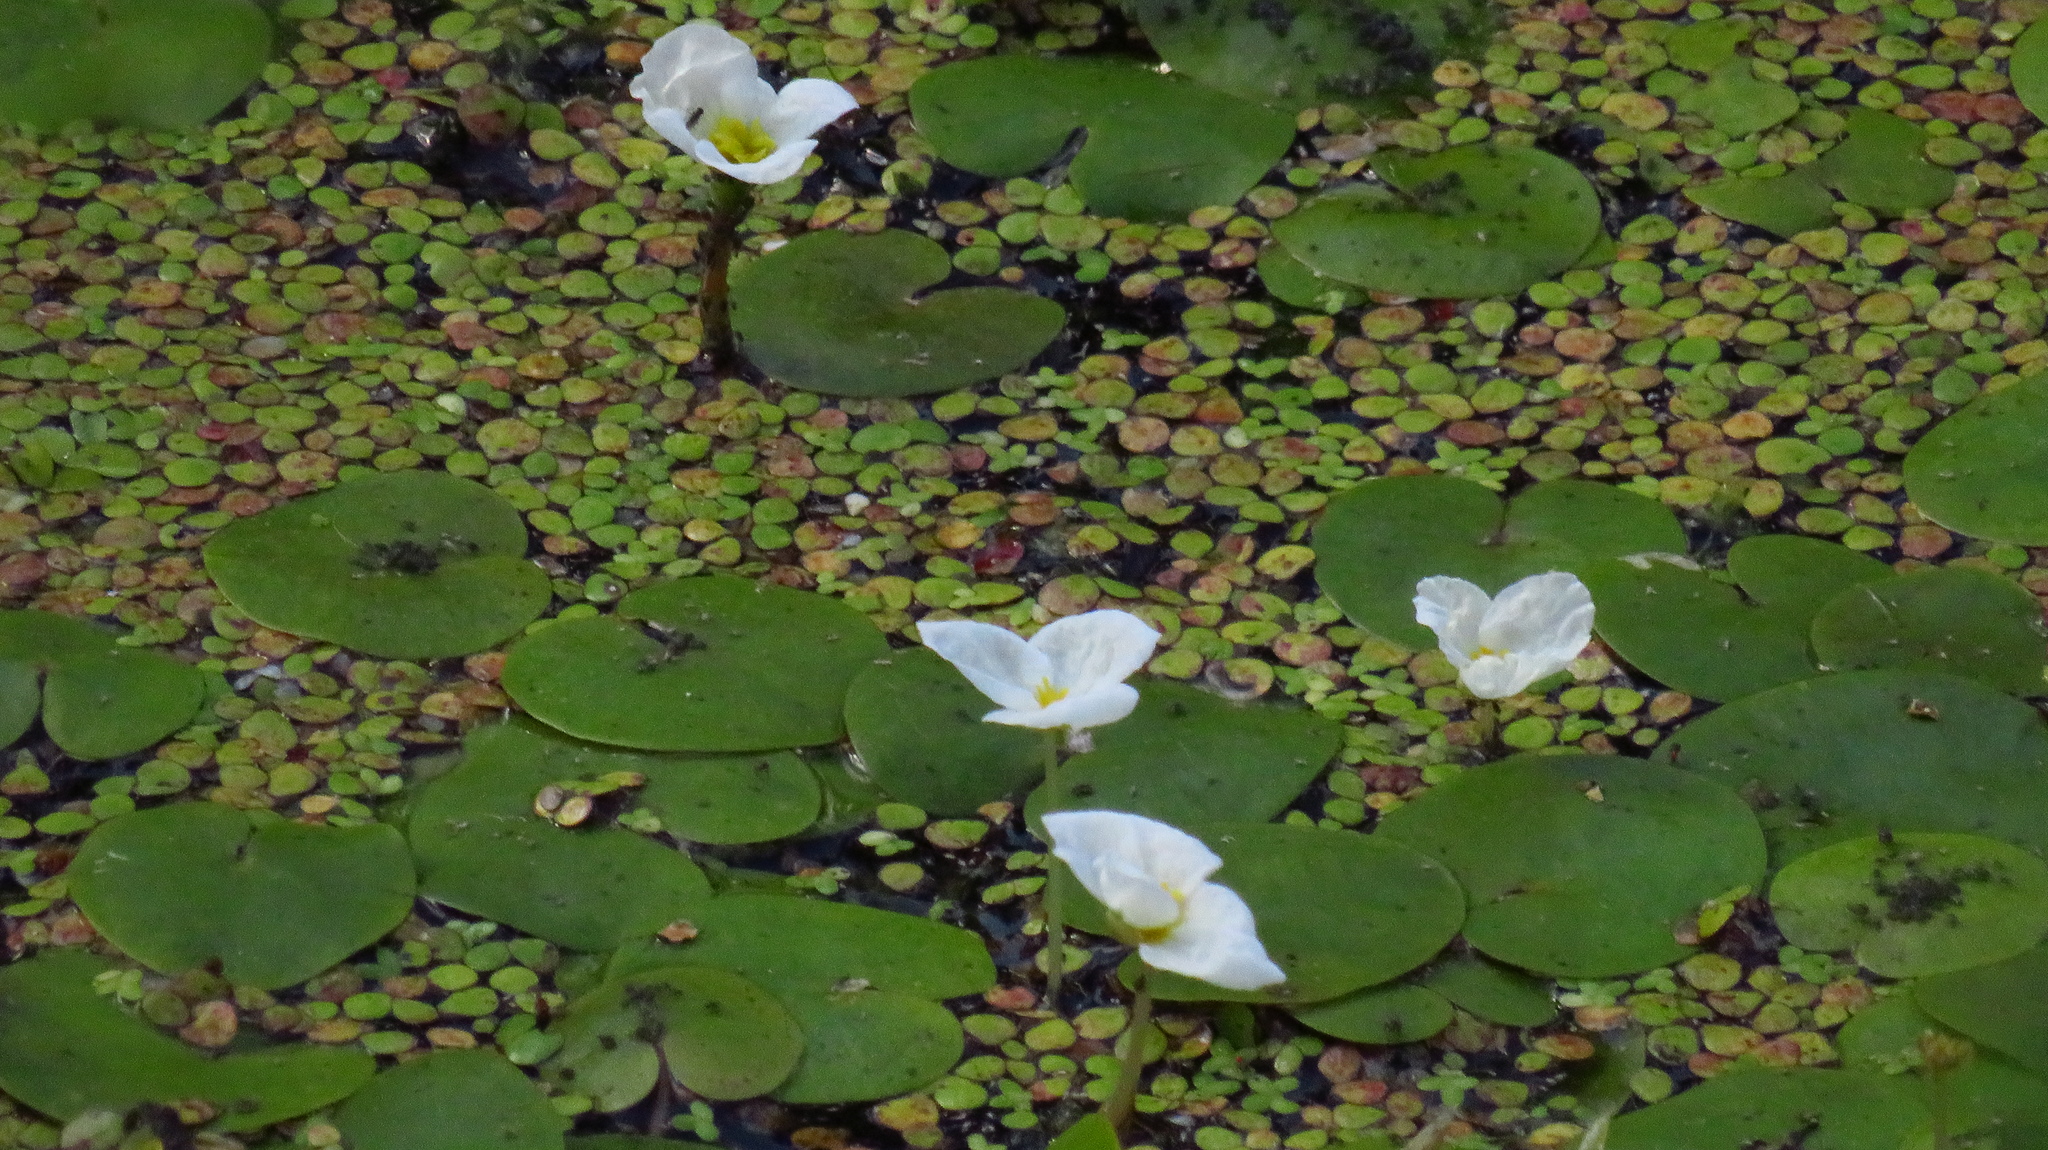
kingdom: Plantae
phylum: Tracheophyta
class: Liliopsida
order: Alismatales
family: Hydrocharitaceae
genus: Hydrocharis
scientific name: Hydrocharis morsus-ranae
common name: Frogbit
